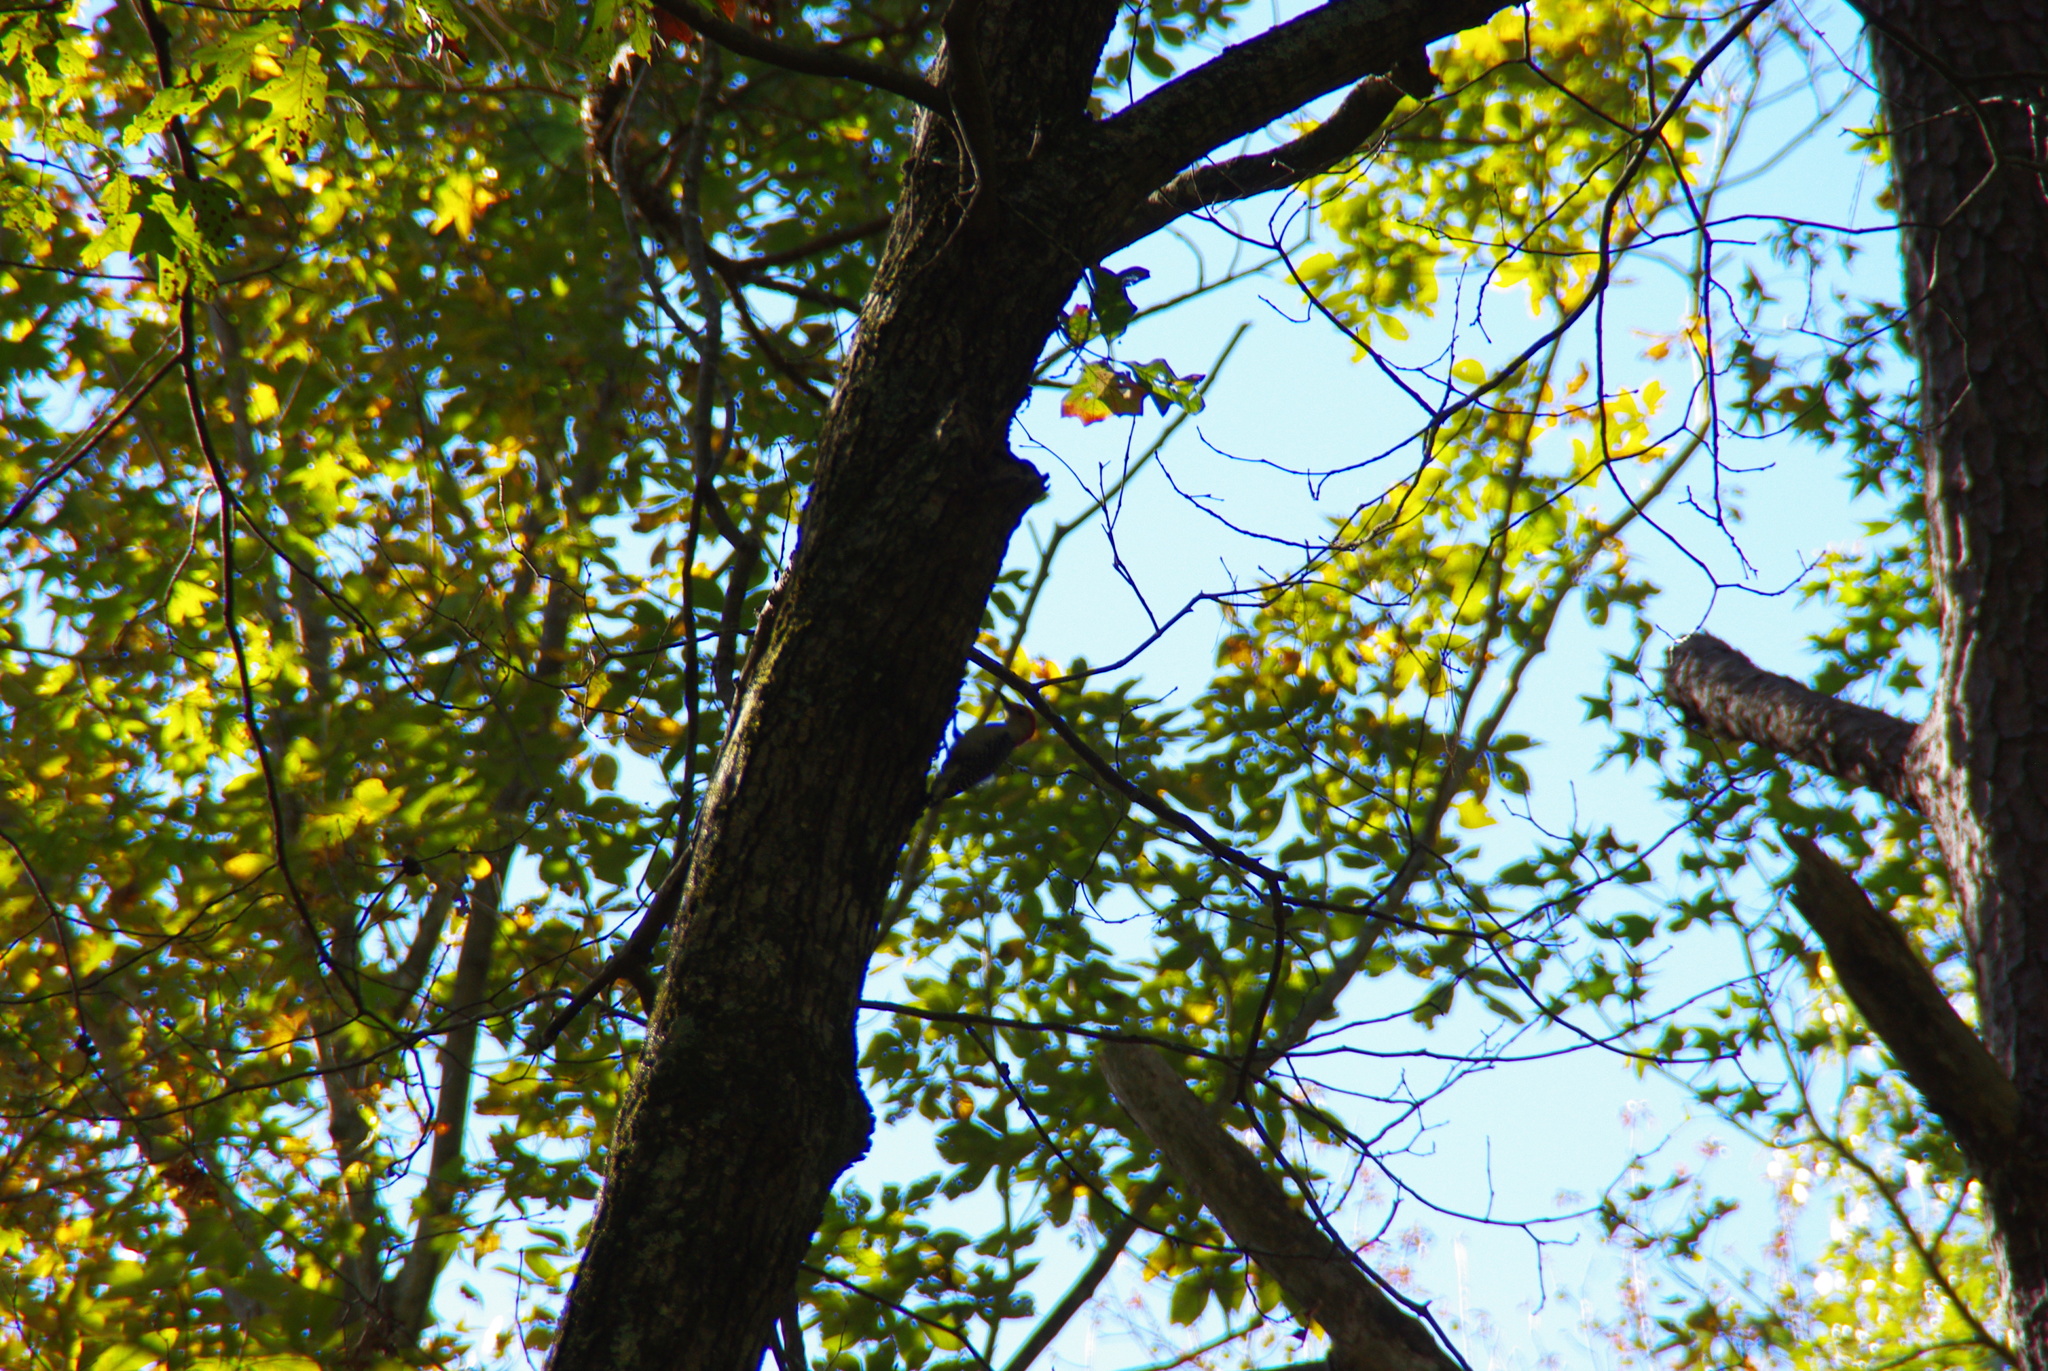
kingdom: Animalia
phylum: Chordata
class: Aves
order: Piciformes
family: Picidae
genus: Melanerpes
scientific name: Melanerpes carolinus
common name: Red-bellied woodpecker
